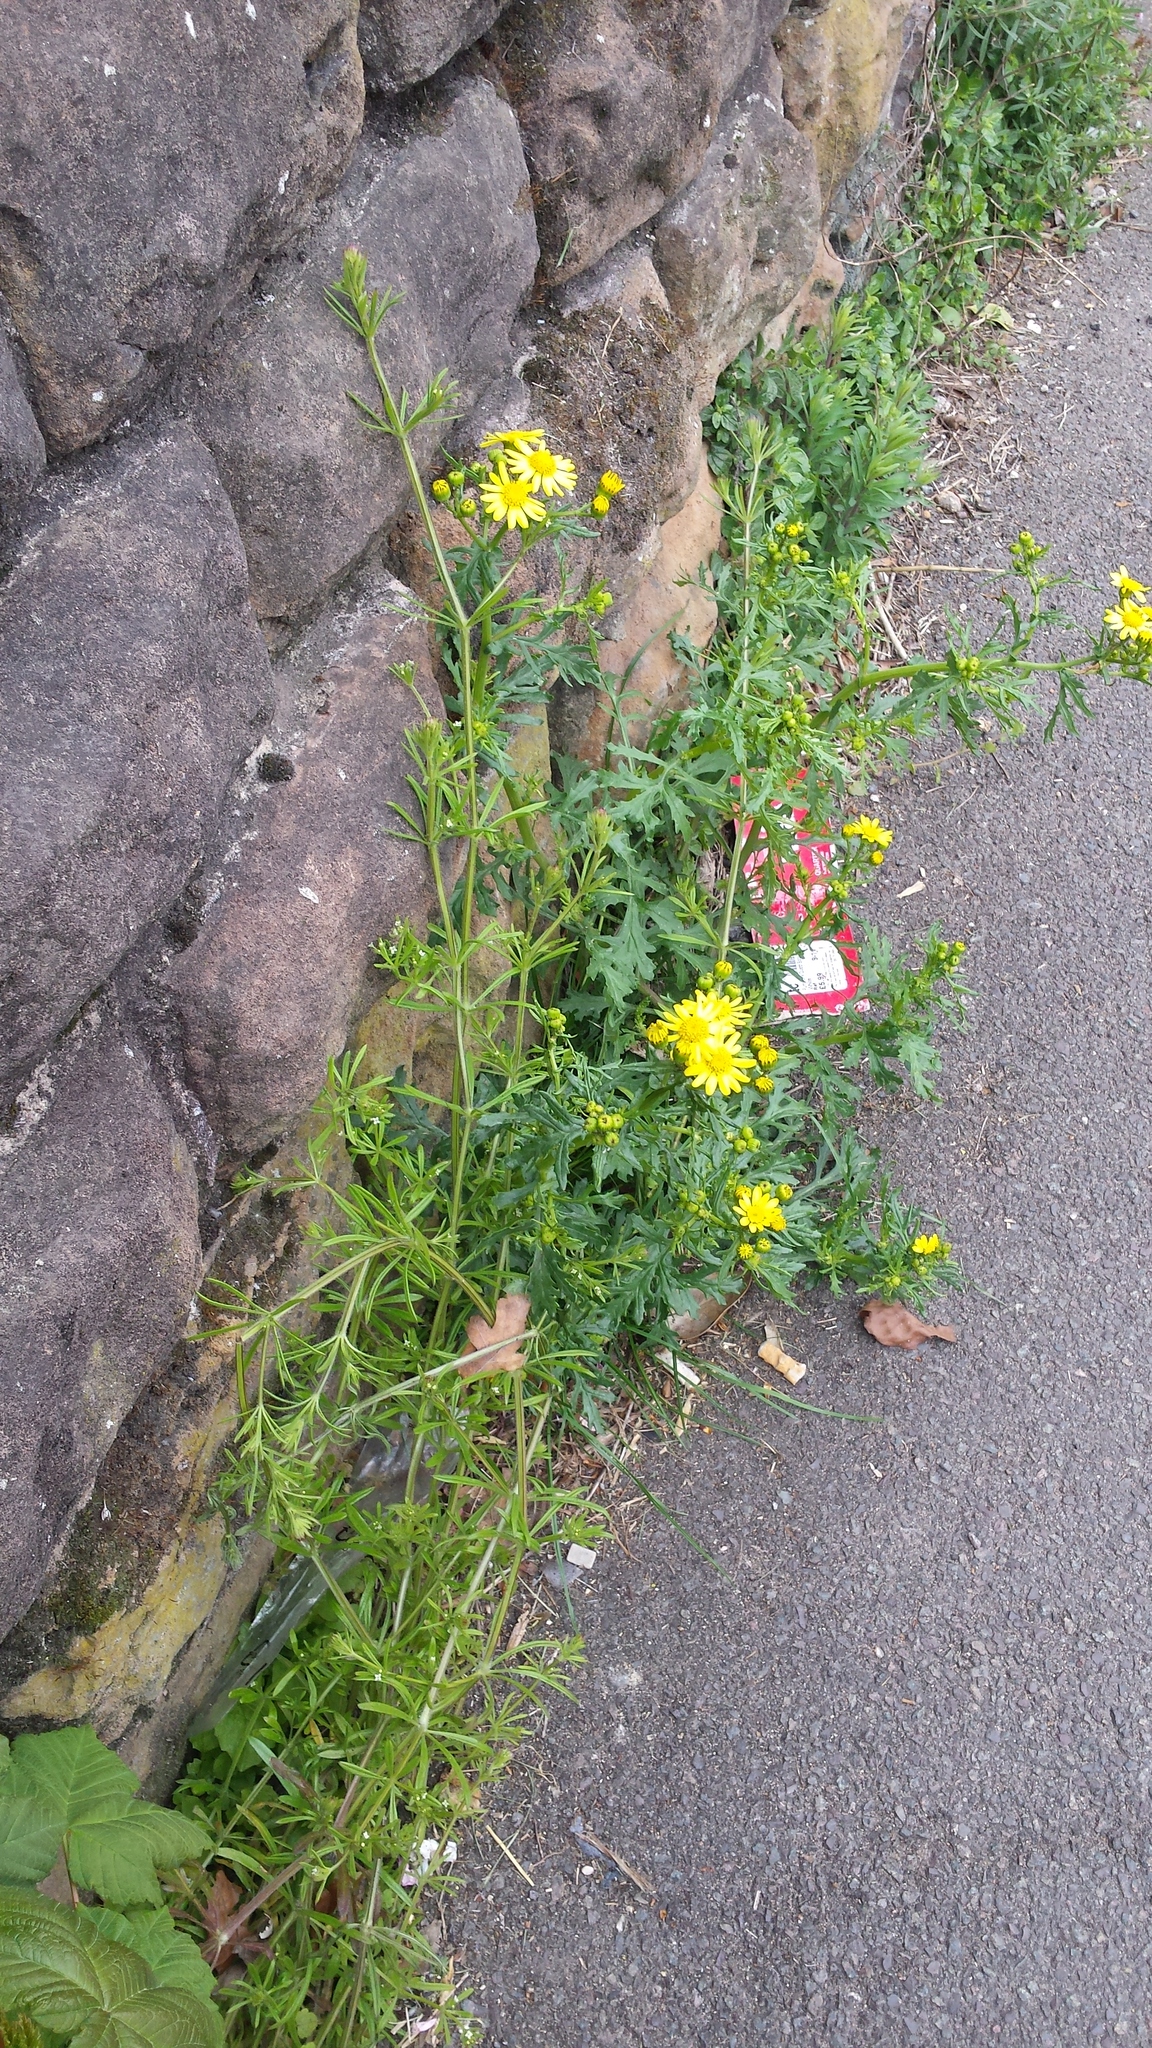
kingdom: Plantae
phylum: Tracheophyta
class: Magnoliopsida
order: Asterales
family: Asteraceae
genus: Senecio
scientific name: Senecio squalidus
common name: Oxford ragwort
